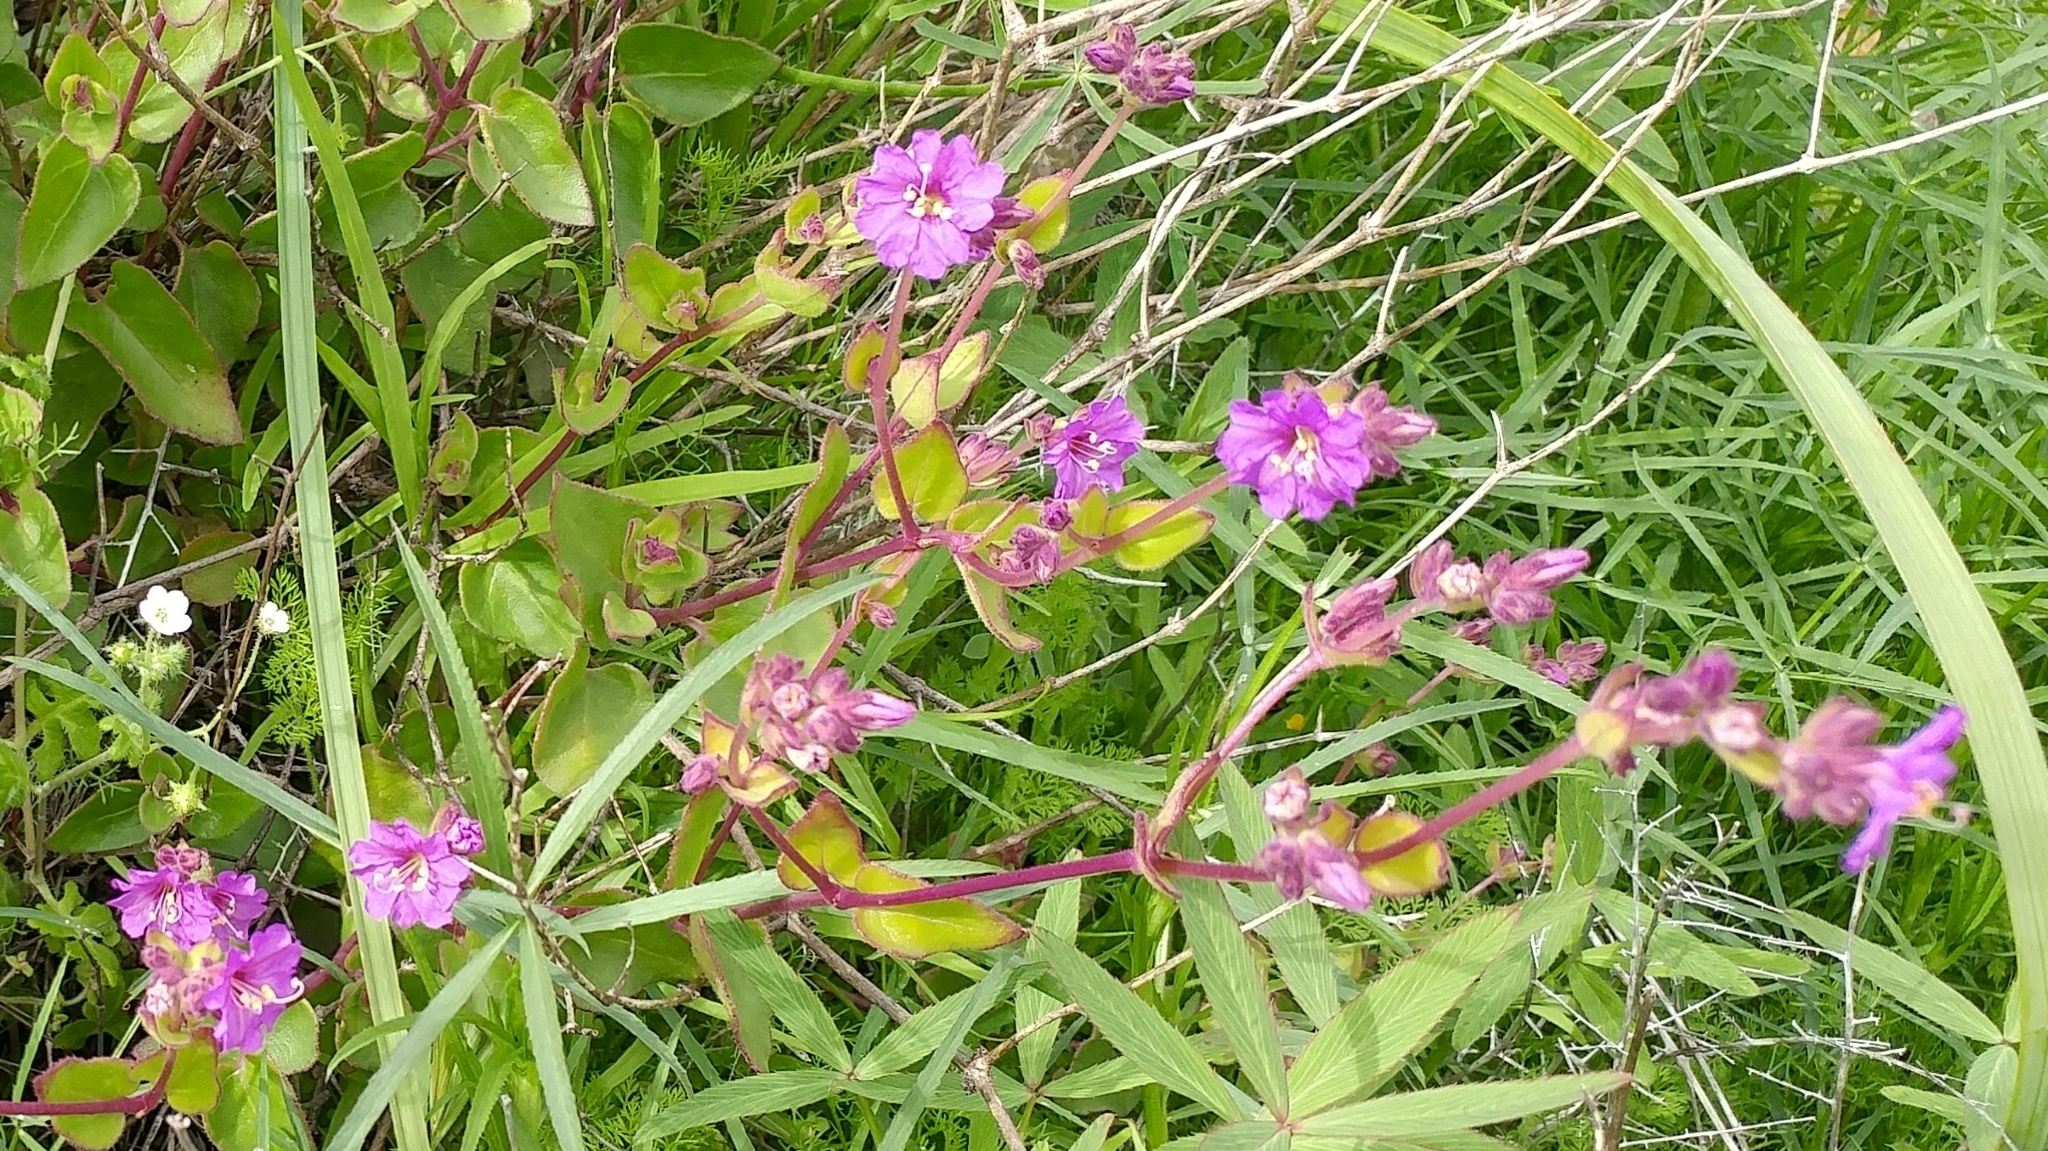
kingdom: Plantae
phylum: Tracheophyta
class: Magnoliopsida
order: Caryophyllales
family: Nyctaginaceae
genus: Mirabilis
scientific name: Mirabilis laevis
